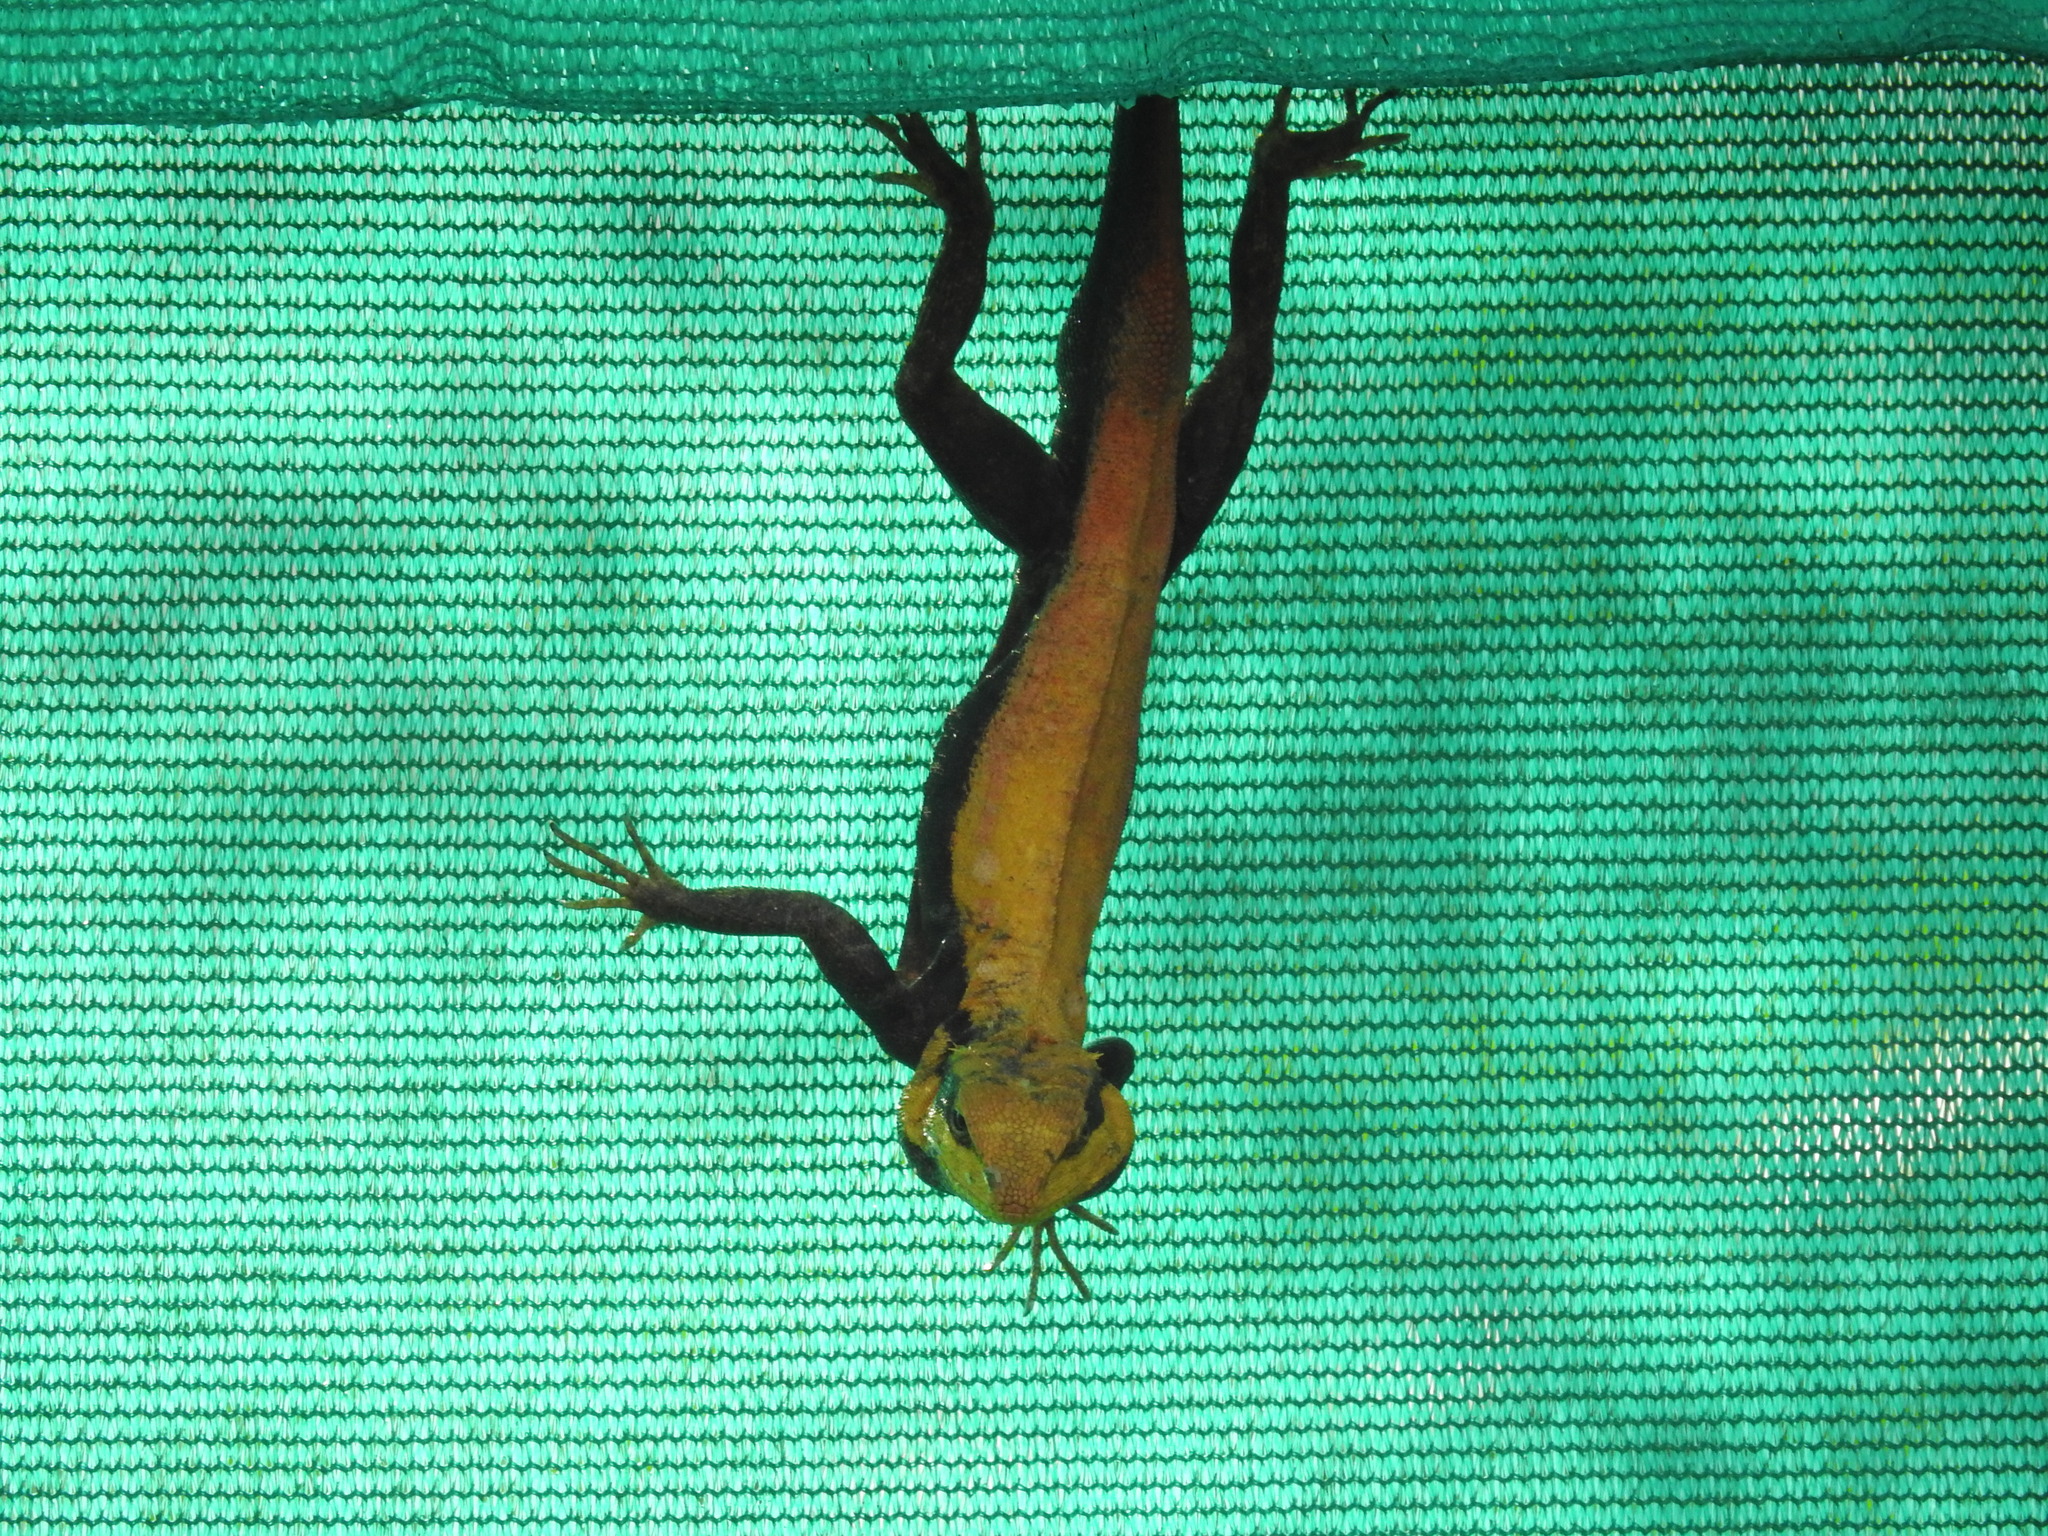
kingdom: Animalia
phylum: Chordata
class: Squamata
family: Agamidae
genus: Psammophilus
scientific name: Psammophilus dorsalis
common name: South indian rock agama
